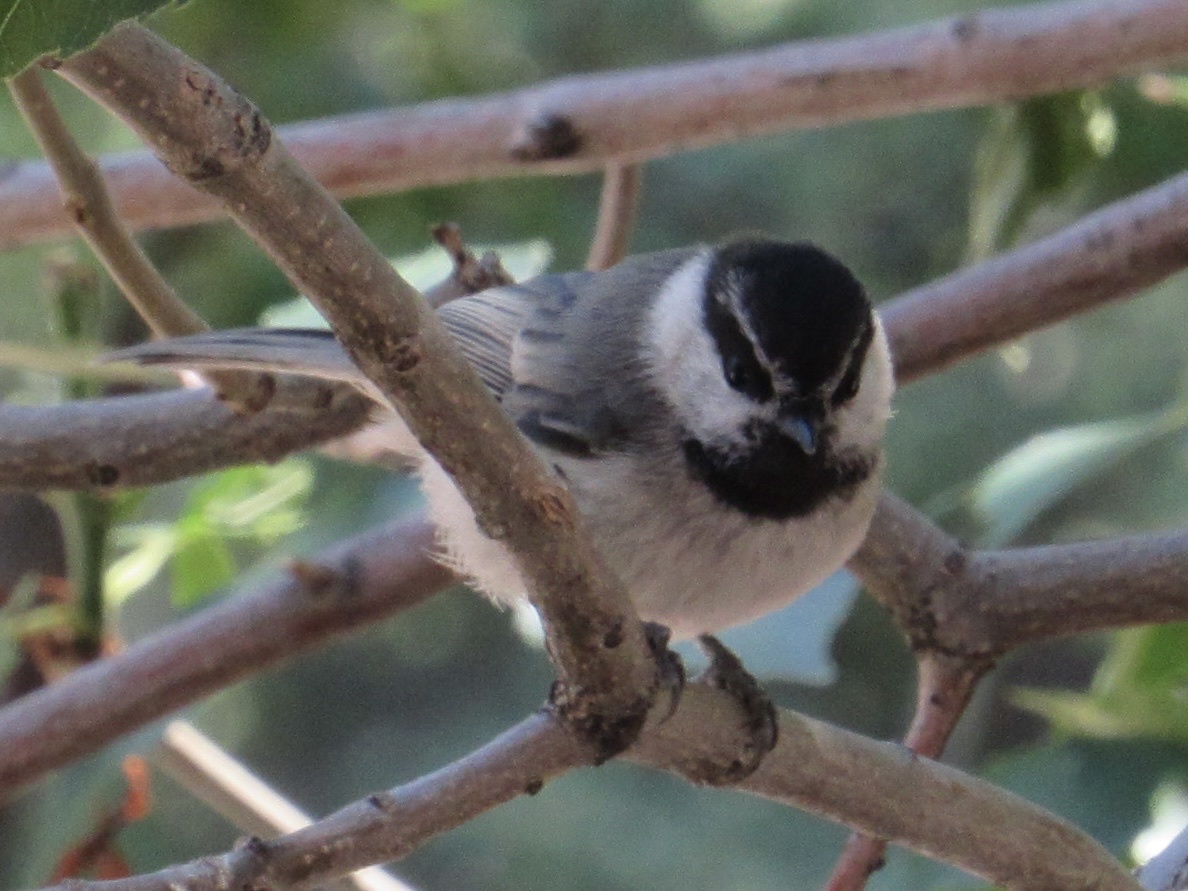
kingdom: Animalia
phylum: Chordata
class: Aves
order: Passeriformes
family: Paridae
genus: Poecile
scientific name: Poecile gambeli
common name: Mountain chickadee
